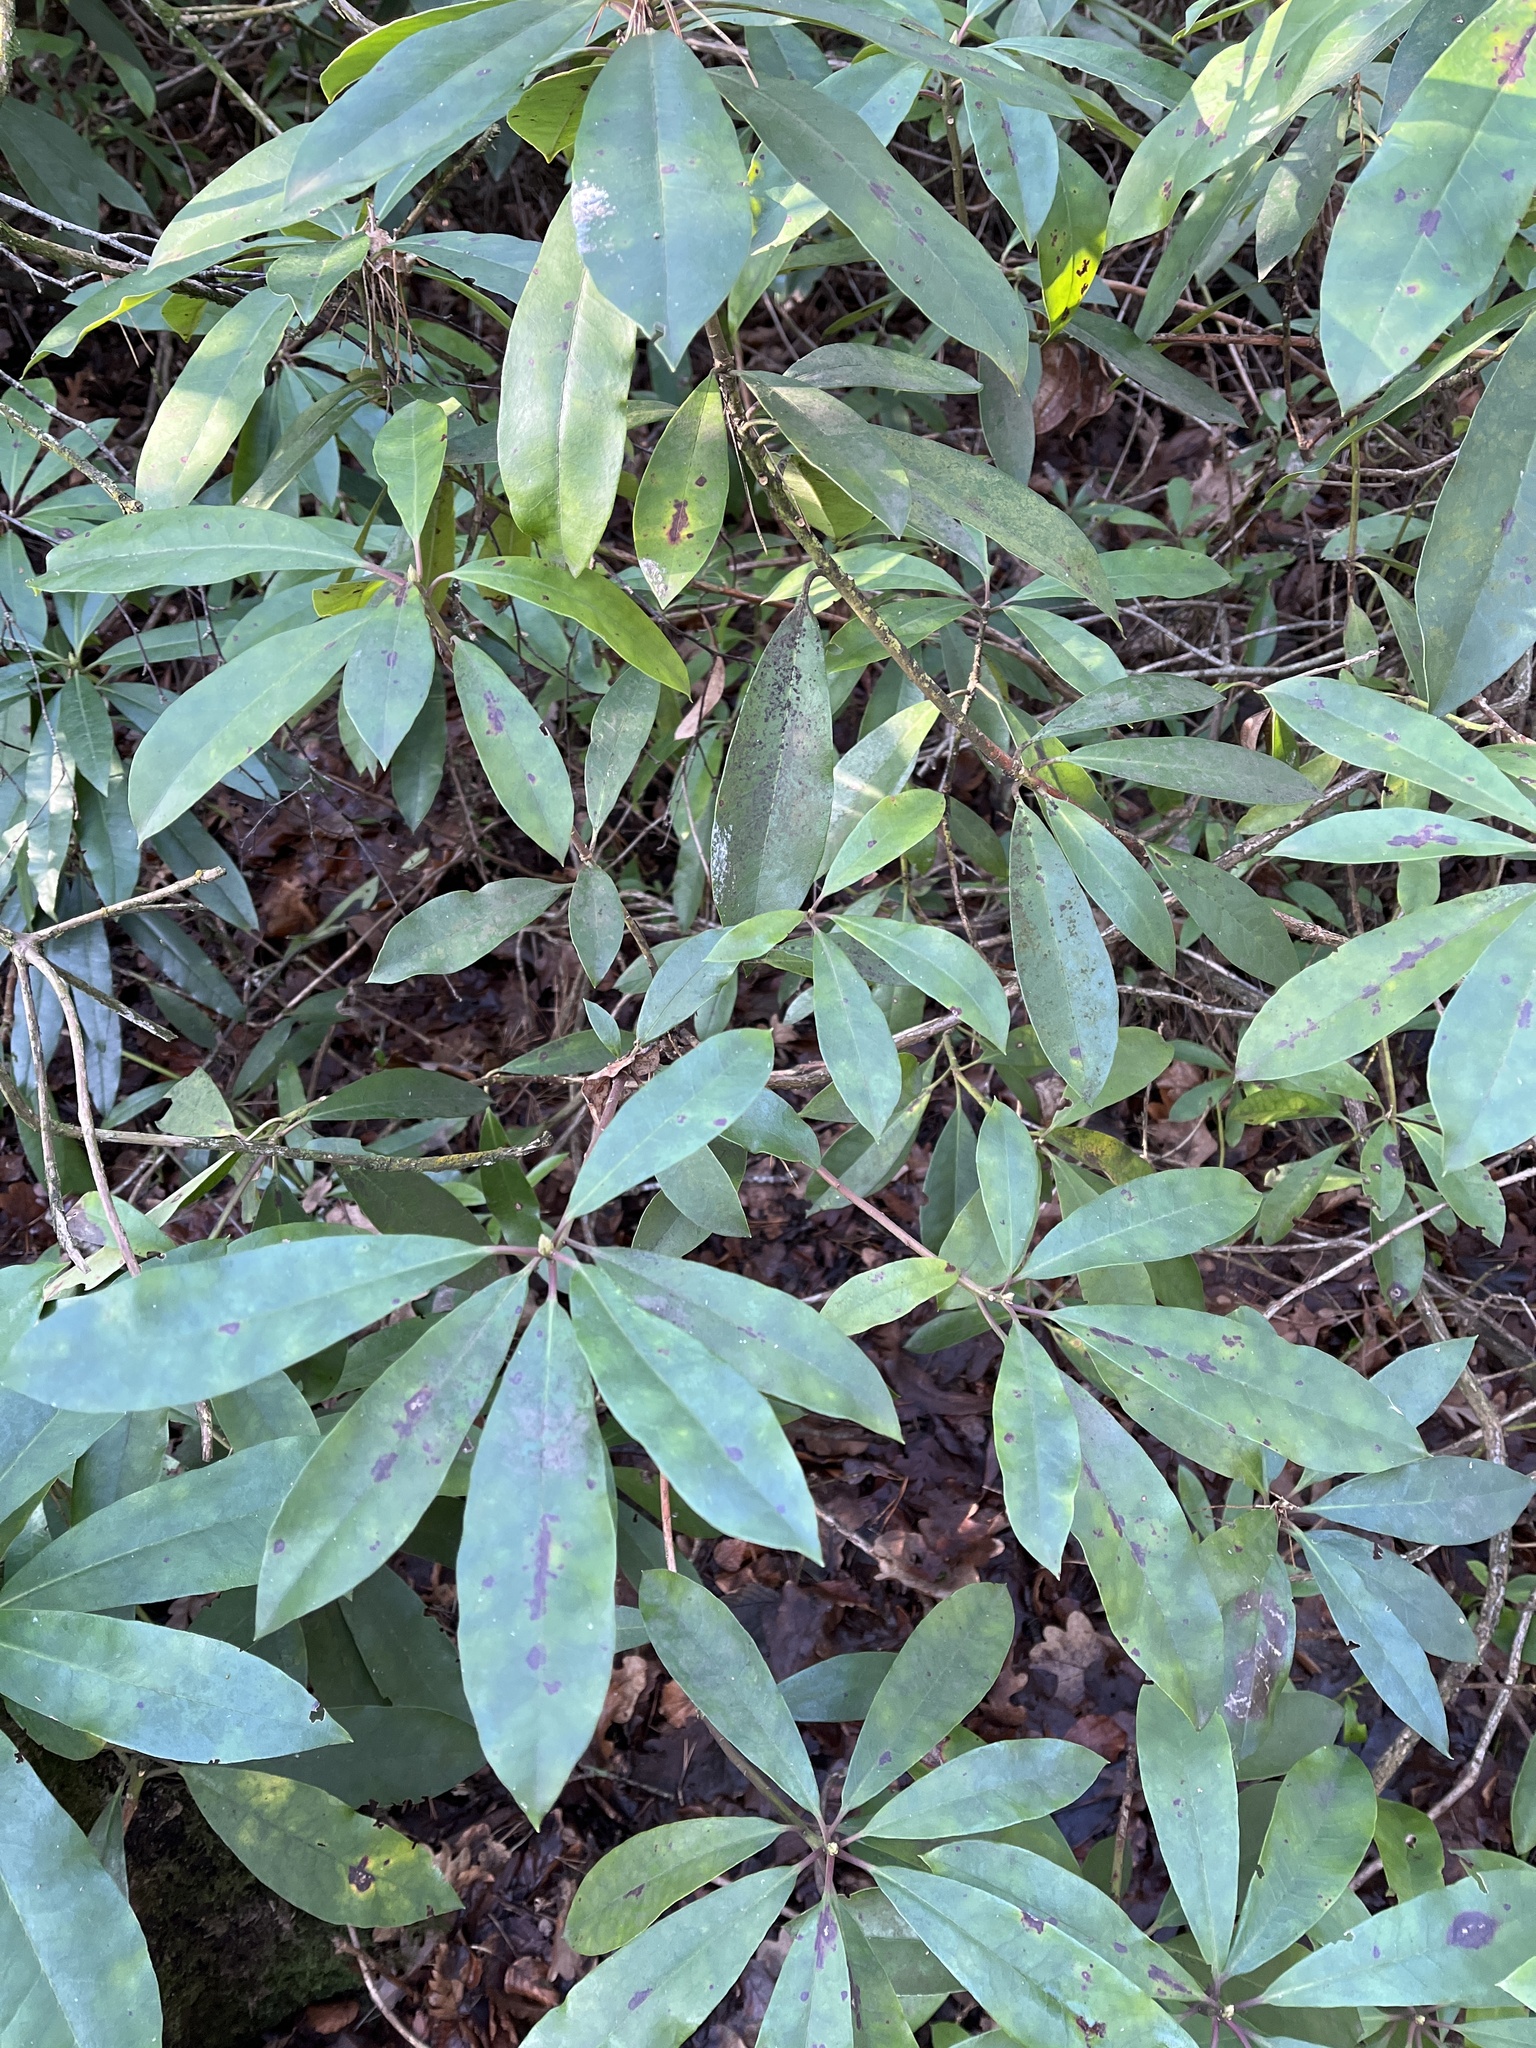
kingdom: Plantae
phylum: Tracheophyta
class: Magnoliopsida
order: Ericales
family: Ericaceae
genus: Rhododendron
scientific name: Rhododendron ponticum
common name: Rhododendron
